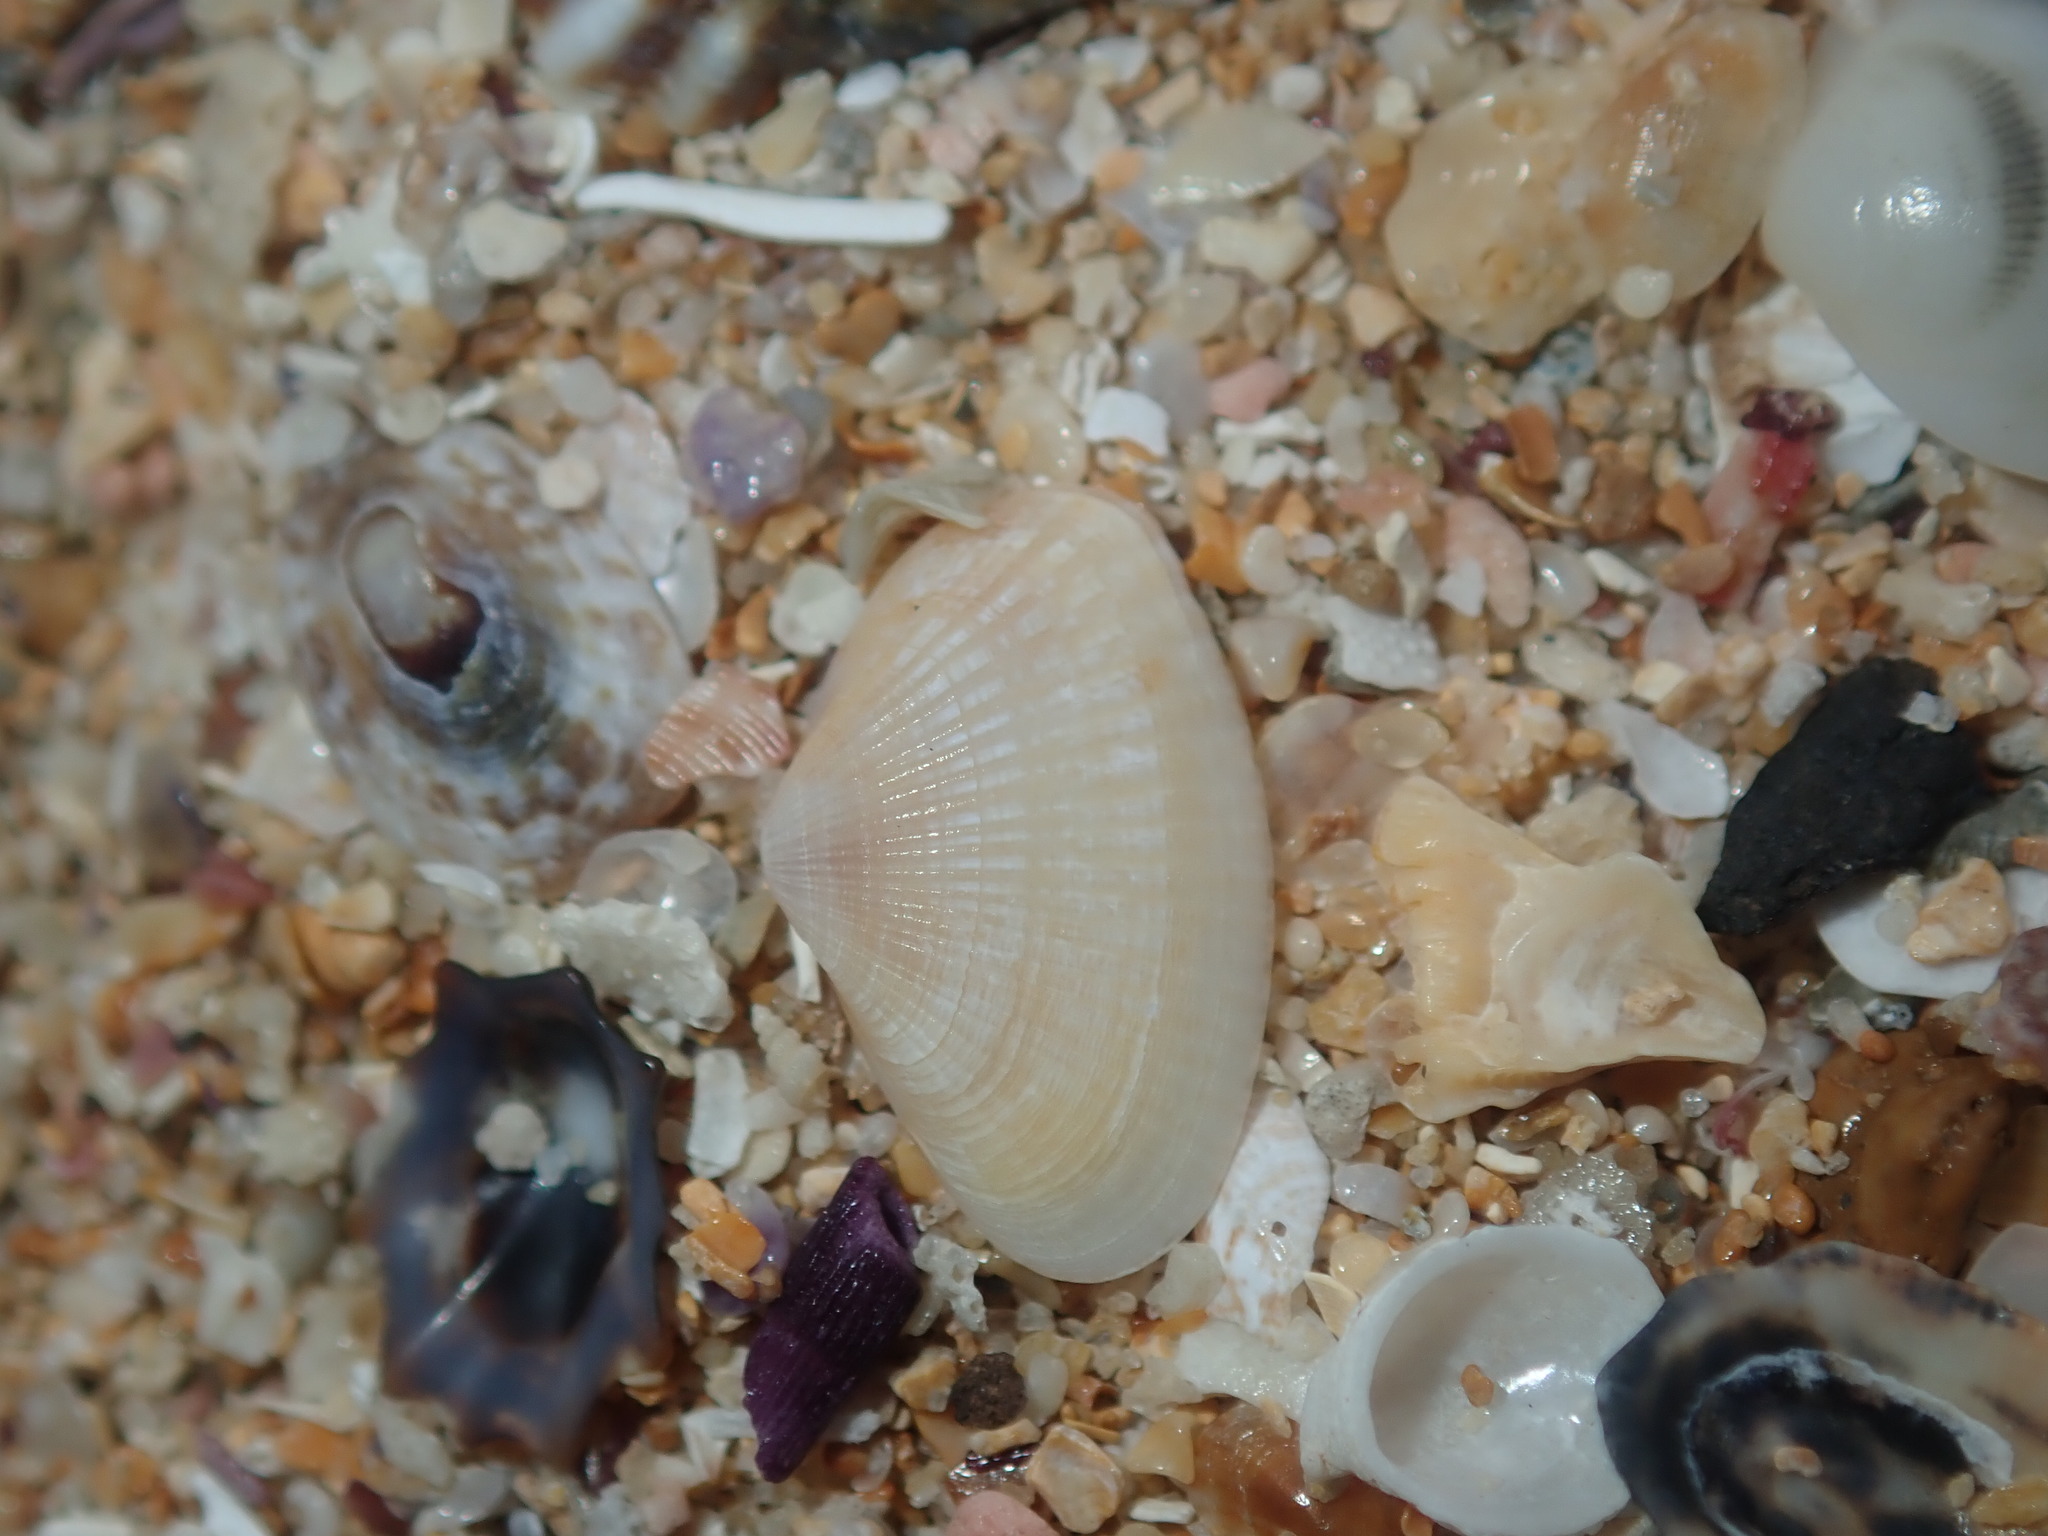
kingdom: Animalia
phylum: Mollusca
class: Bivalvia
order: Venerida
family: Hemidonacidae
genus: Hemidonax
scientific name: Hemidonax dactylus
